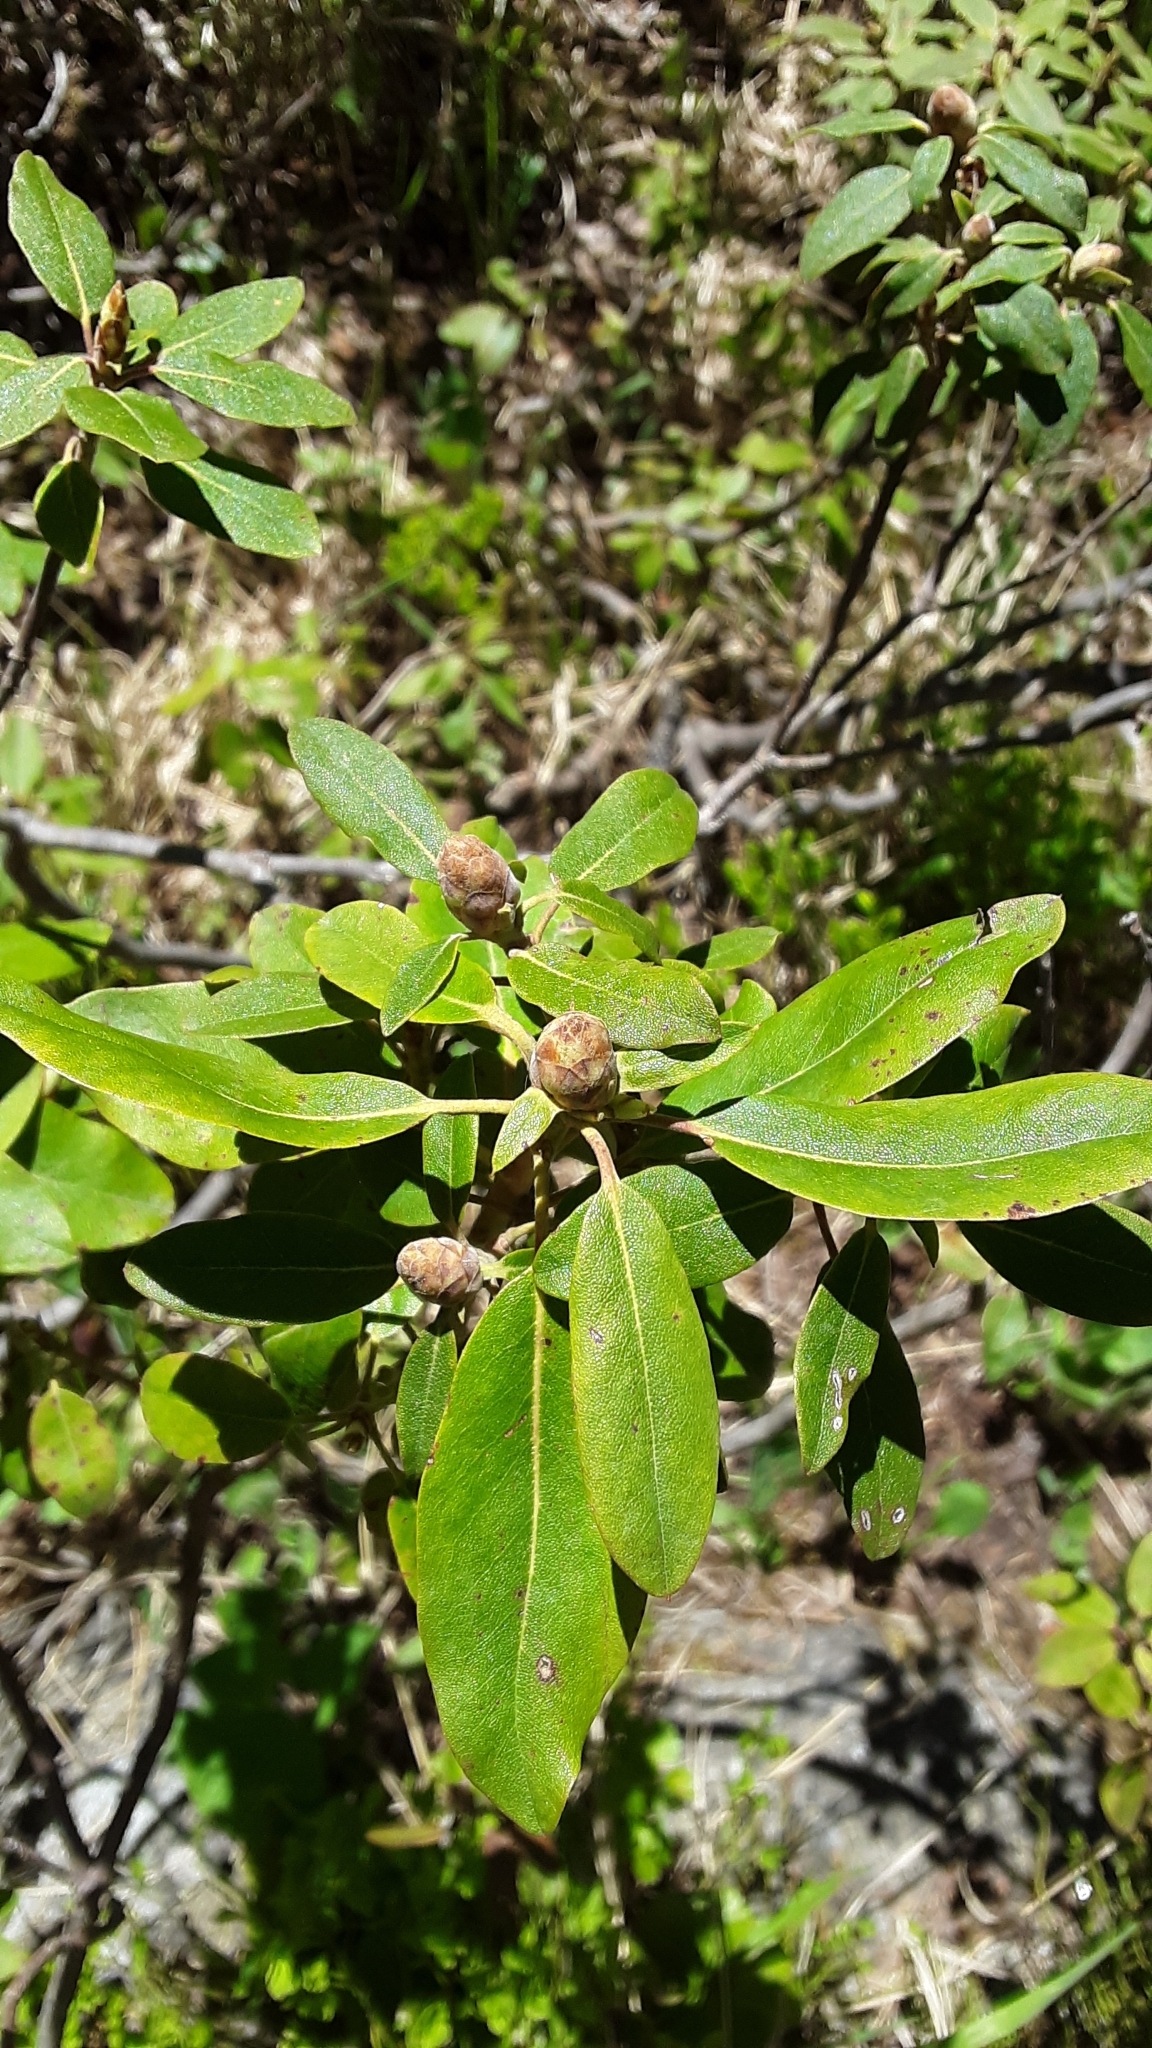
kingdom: Plantae
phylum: Tracheophyta
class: Magnoliopsida
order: Ericales
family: Ericaceae
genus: Rhododendron
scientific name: Rhododendron columbianum
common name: Western labrador tea
